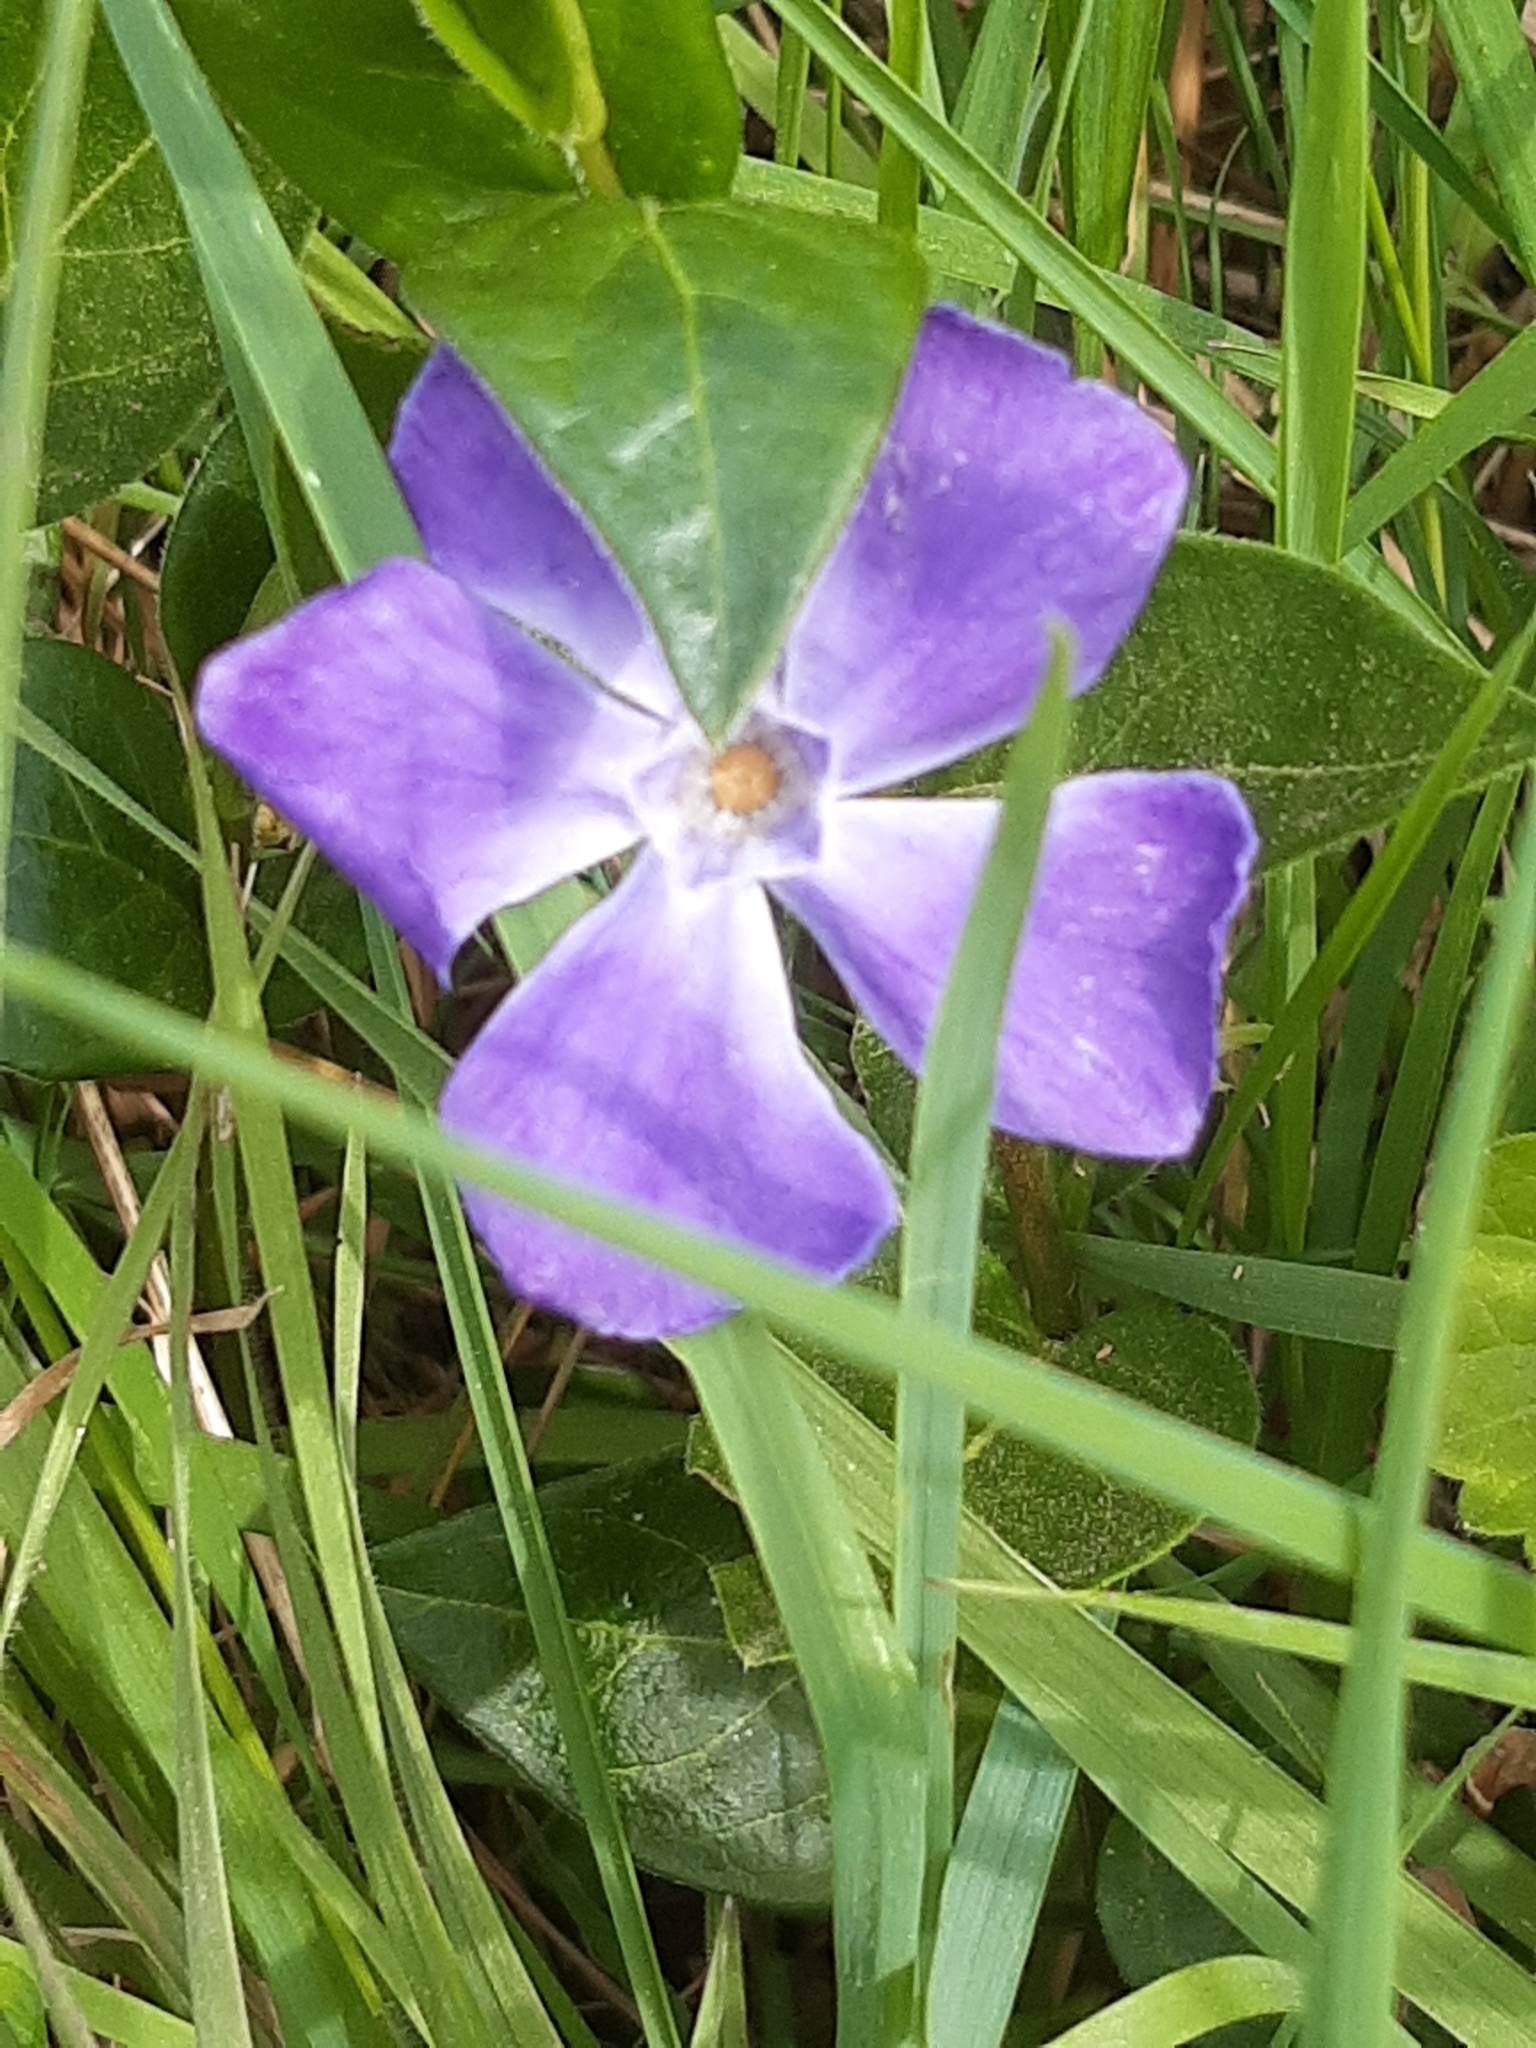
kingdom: Plantae
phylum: Tracheophyta
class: Magnoliopsida
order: Gentianales
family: Apocynaceae
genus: Vinca
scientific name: Vinca major
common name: Greater periwinkle
